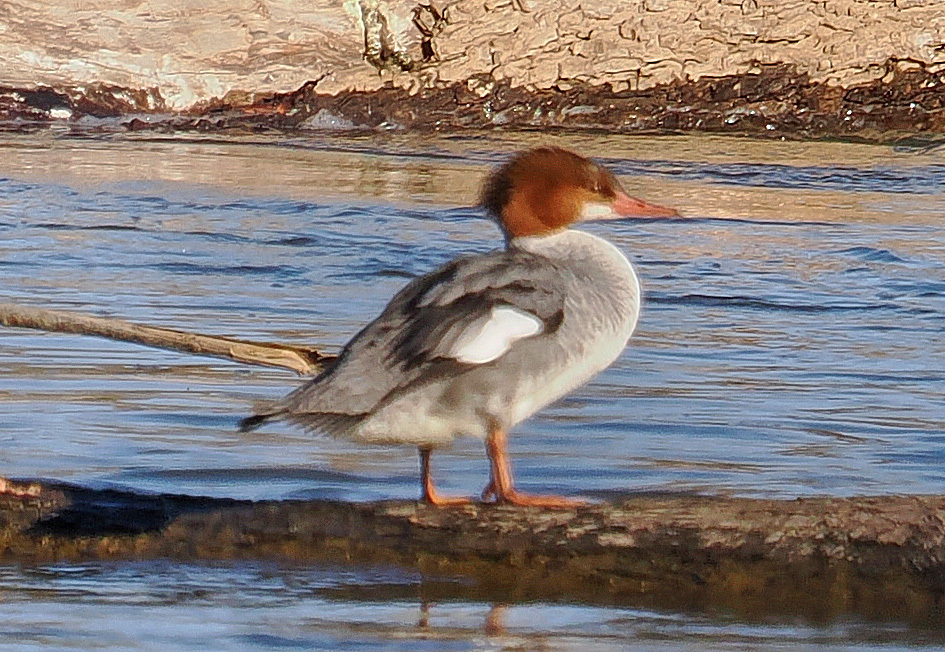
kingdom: Animalia
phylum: Chordata
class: Aves
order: Anseriformes
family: Anatidae
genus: Mergus
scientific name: Mergus merganser
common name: Common merganser
